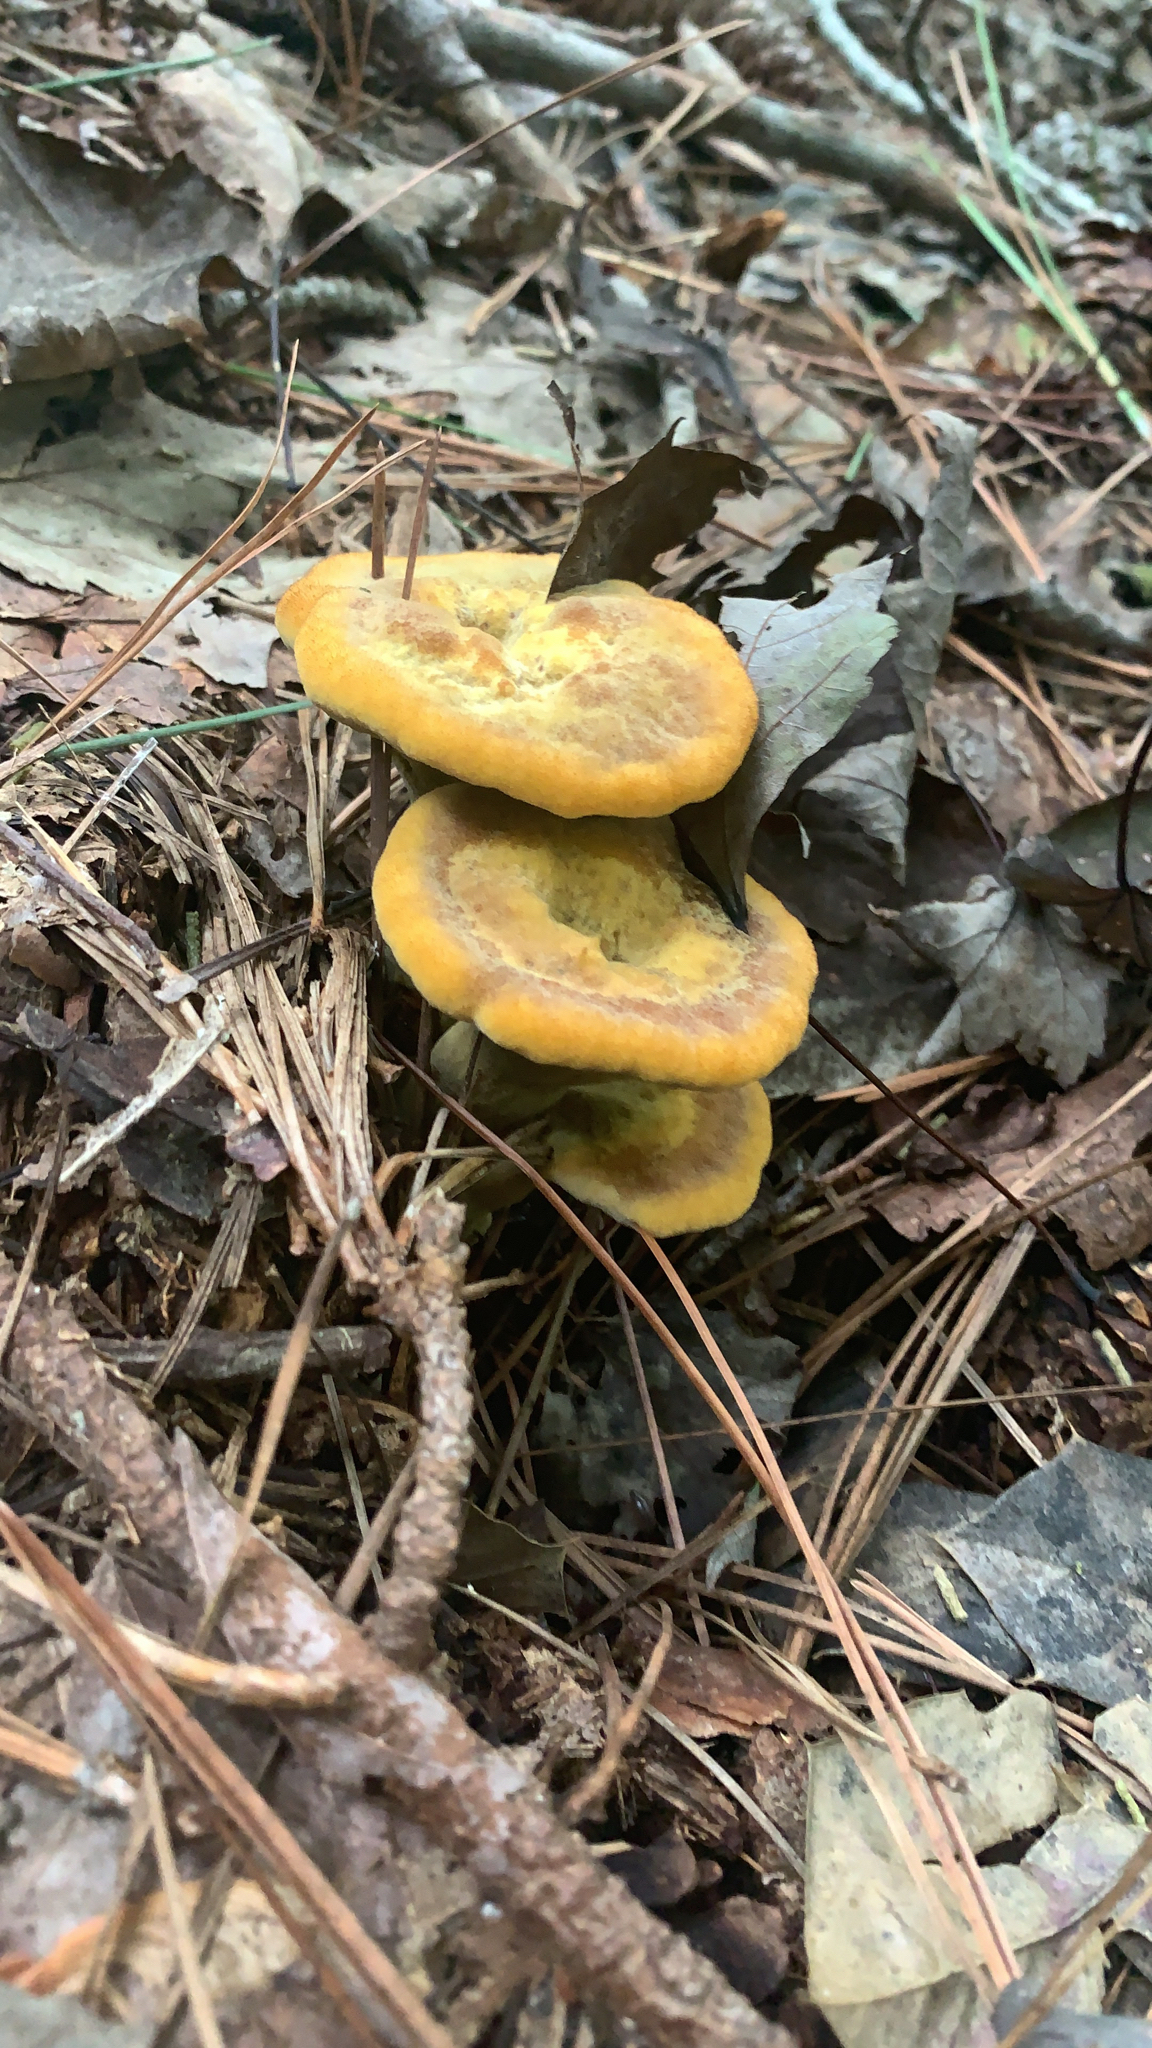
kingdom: Fungi
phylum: Basidiomycota
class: Agaricomycetes
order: Polyporales
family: Laetiporaceae
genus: Phaeolus
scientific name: Phaeolus schweinitzii
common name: Dyer's mazegill
